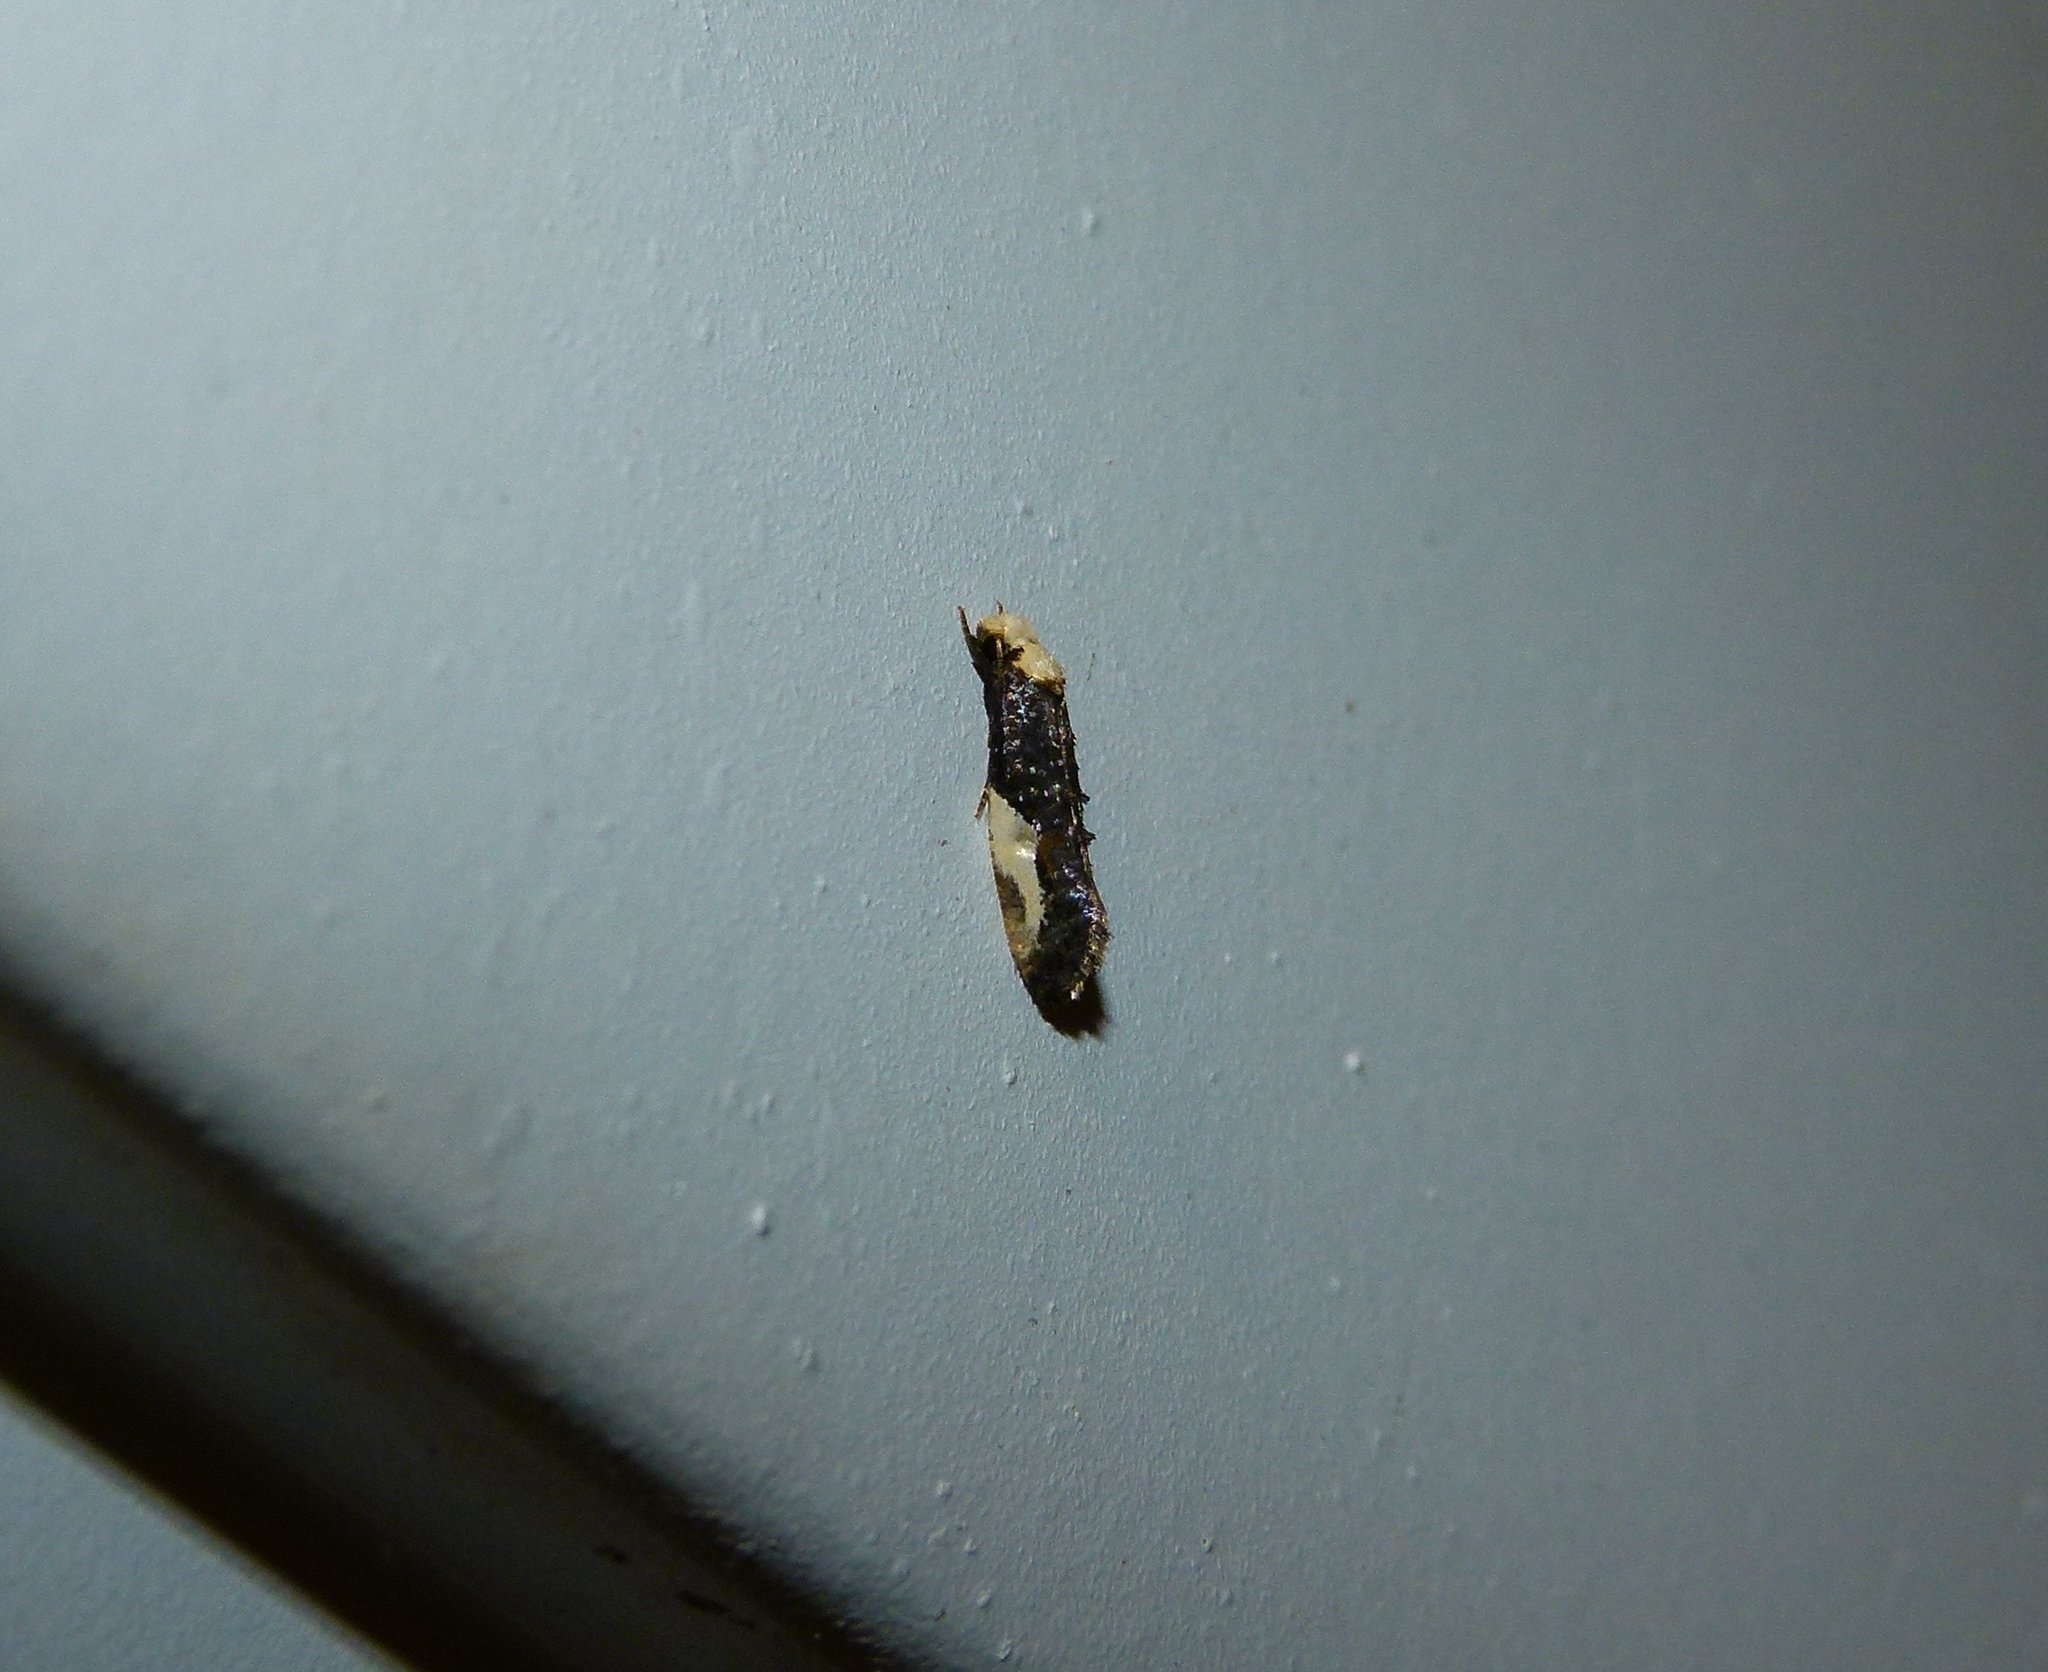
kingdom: Animalia
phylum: Arthropoda
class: Insecta
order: Lepidoptera
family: Tineidae
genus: Monopis
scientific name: Monopis longella
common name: Pavlovski's monopis moth
